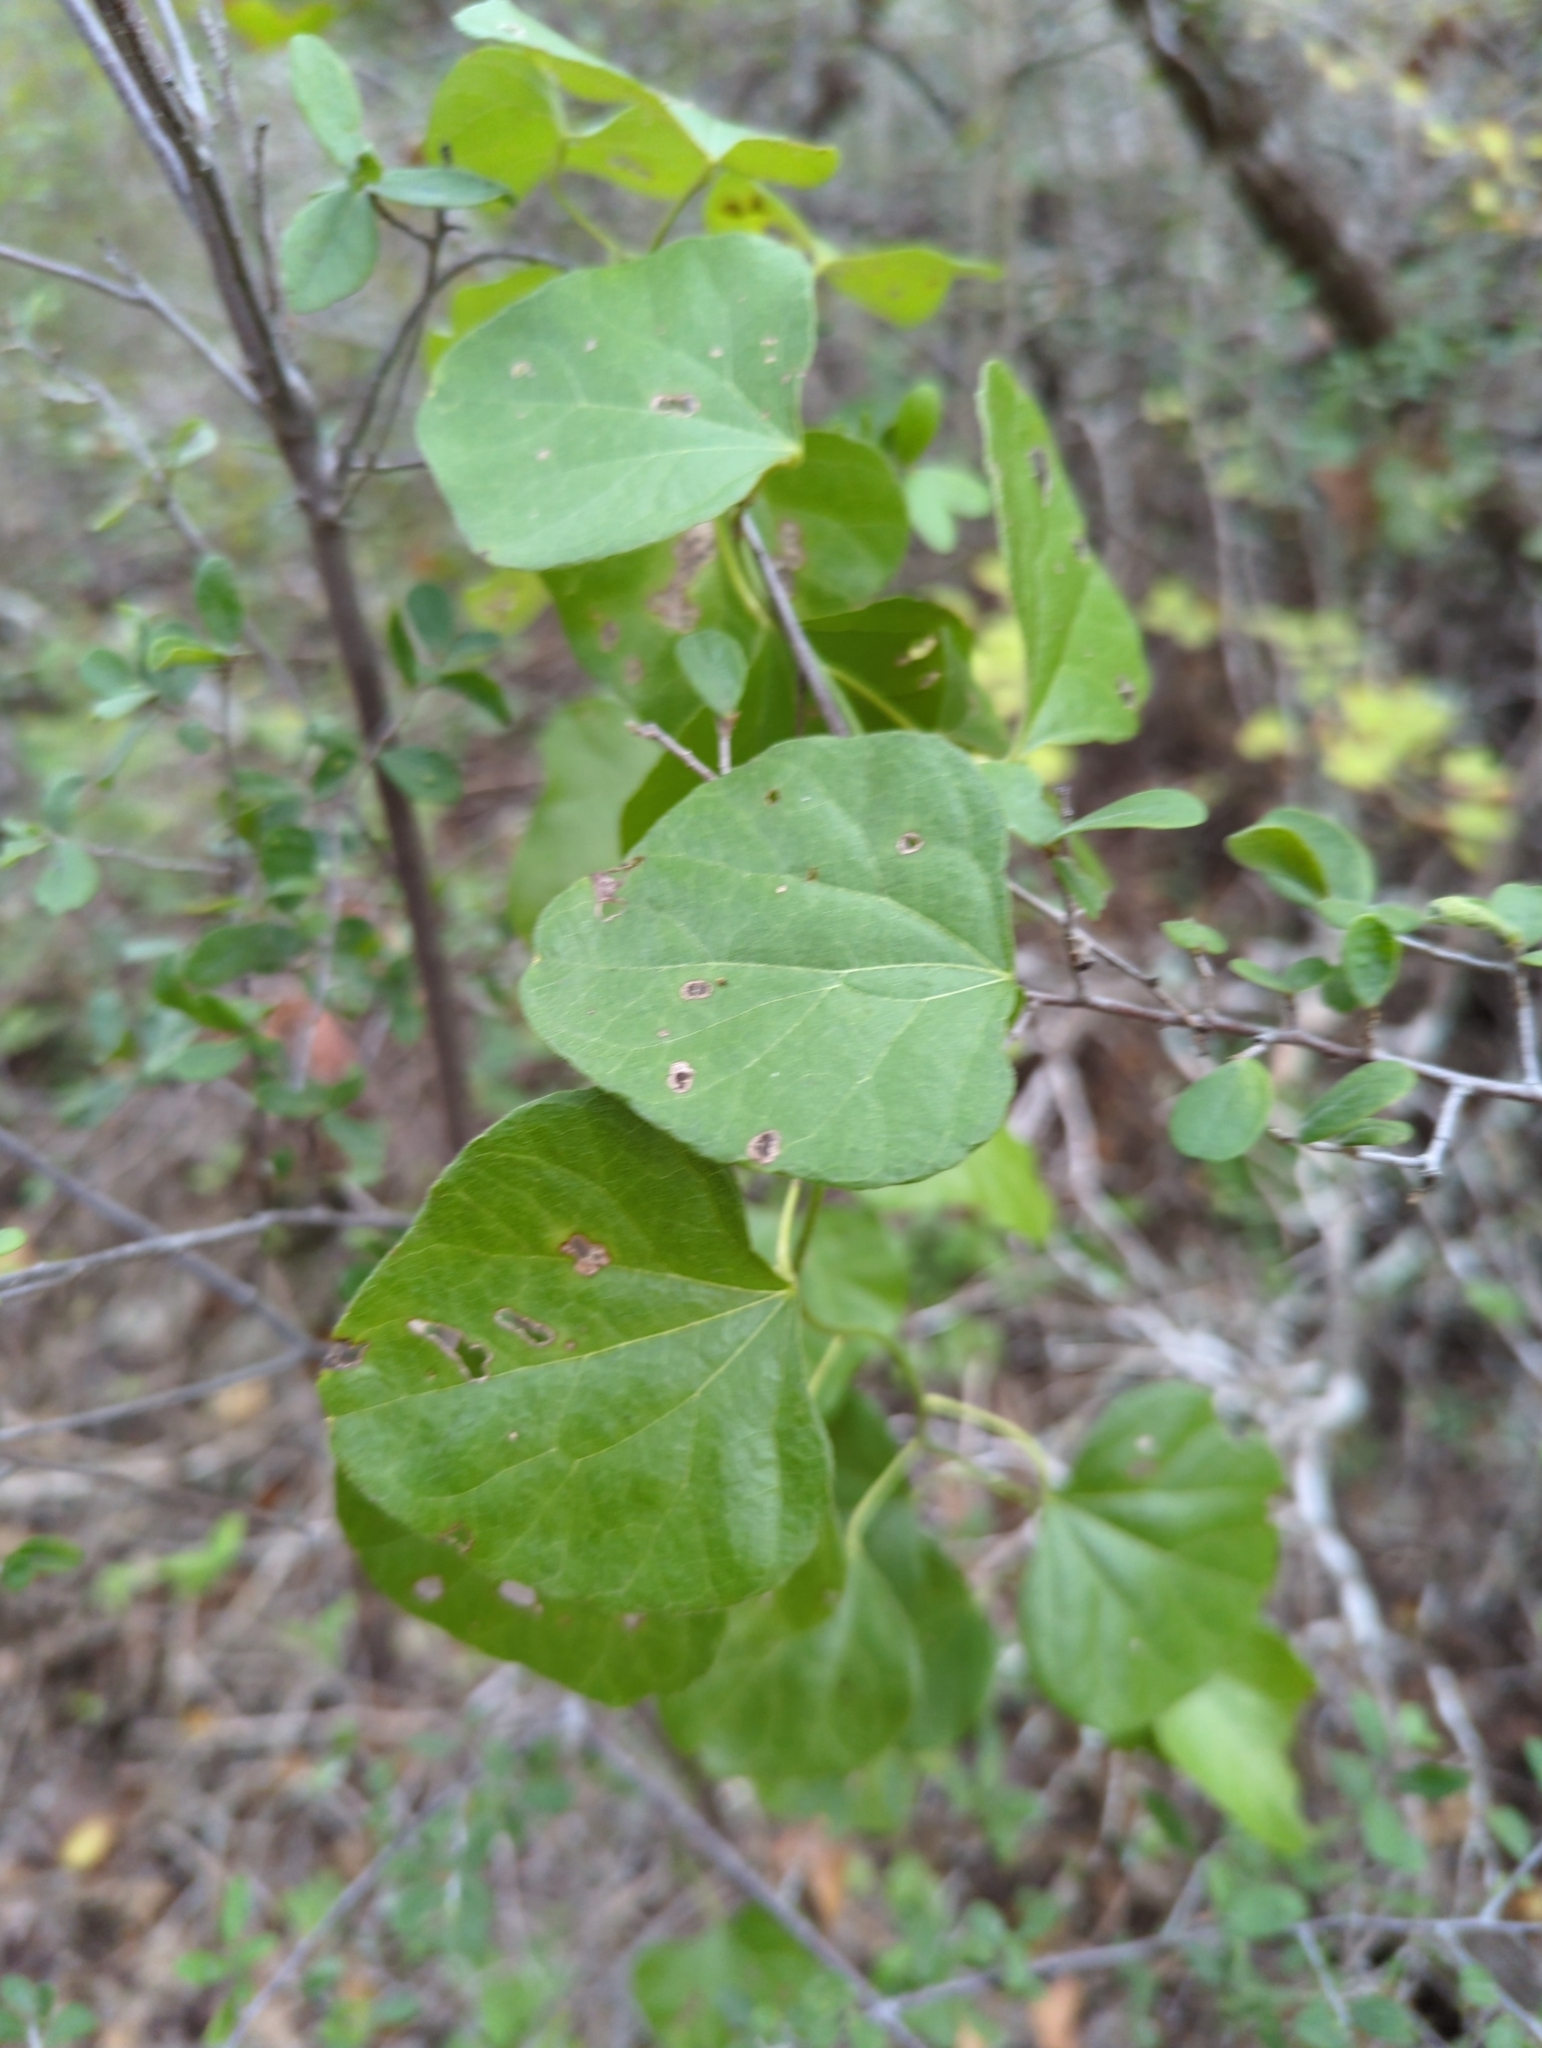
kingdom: Plantae
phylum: Tracheophyta
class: Magnoliopsida
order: Ranunculales
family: Menispermaceae
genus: Cocculus
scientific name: Cocculus carolinus
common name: Carolina moonseed
